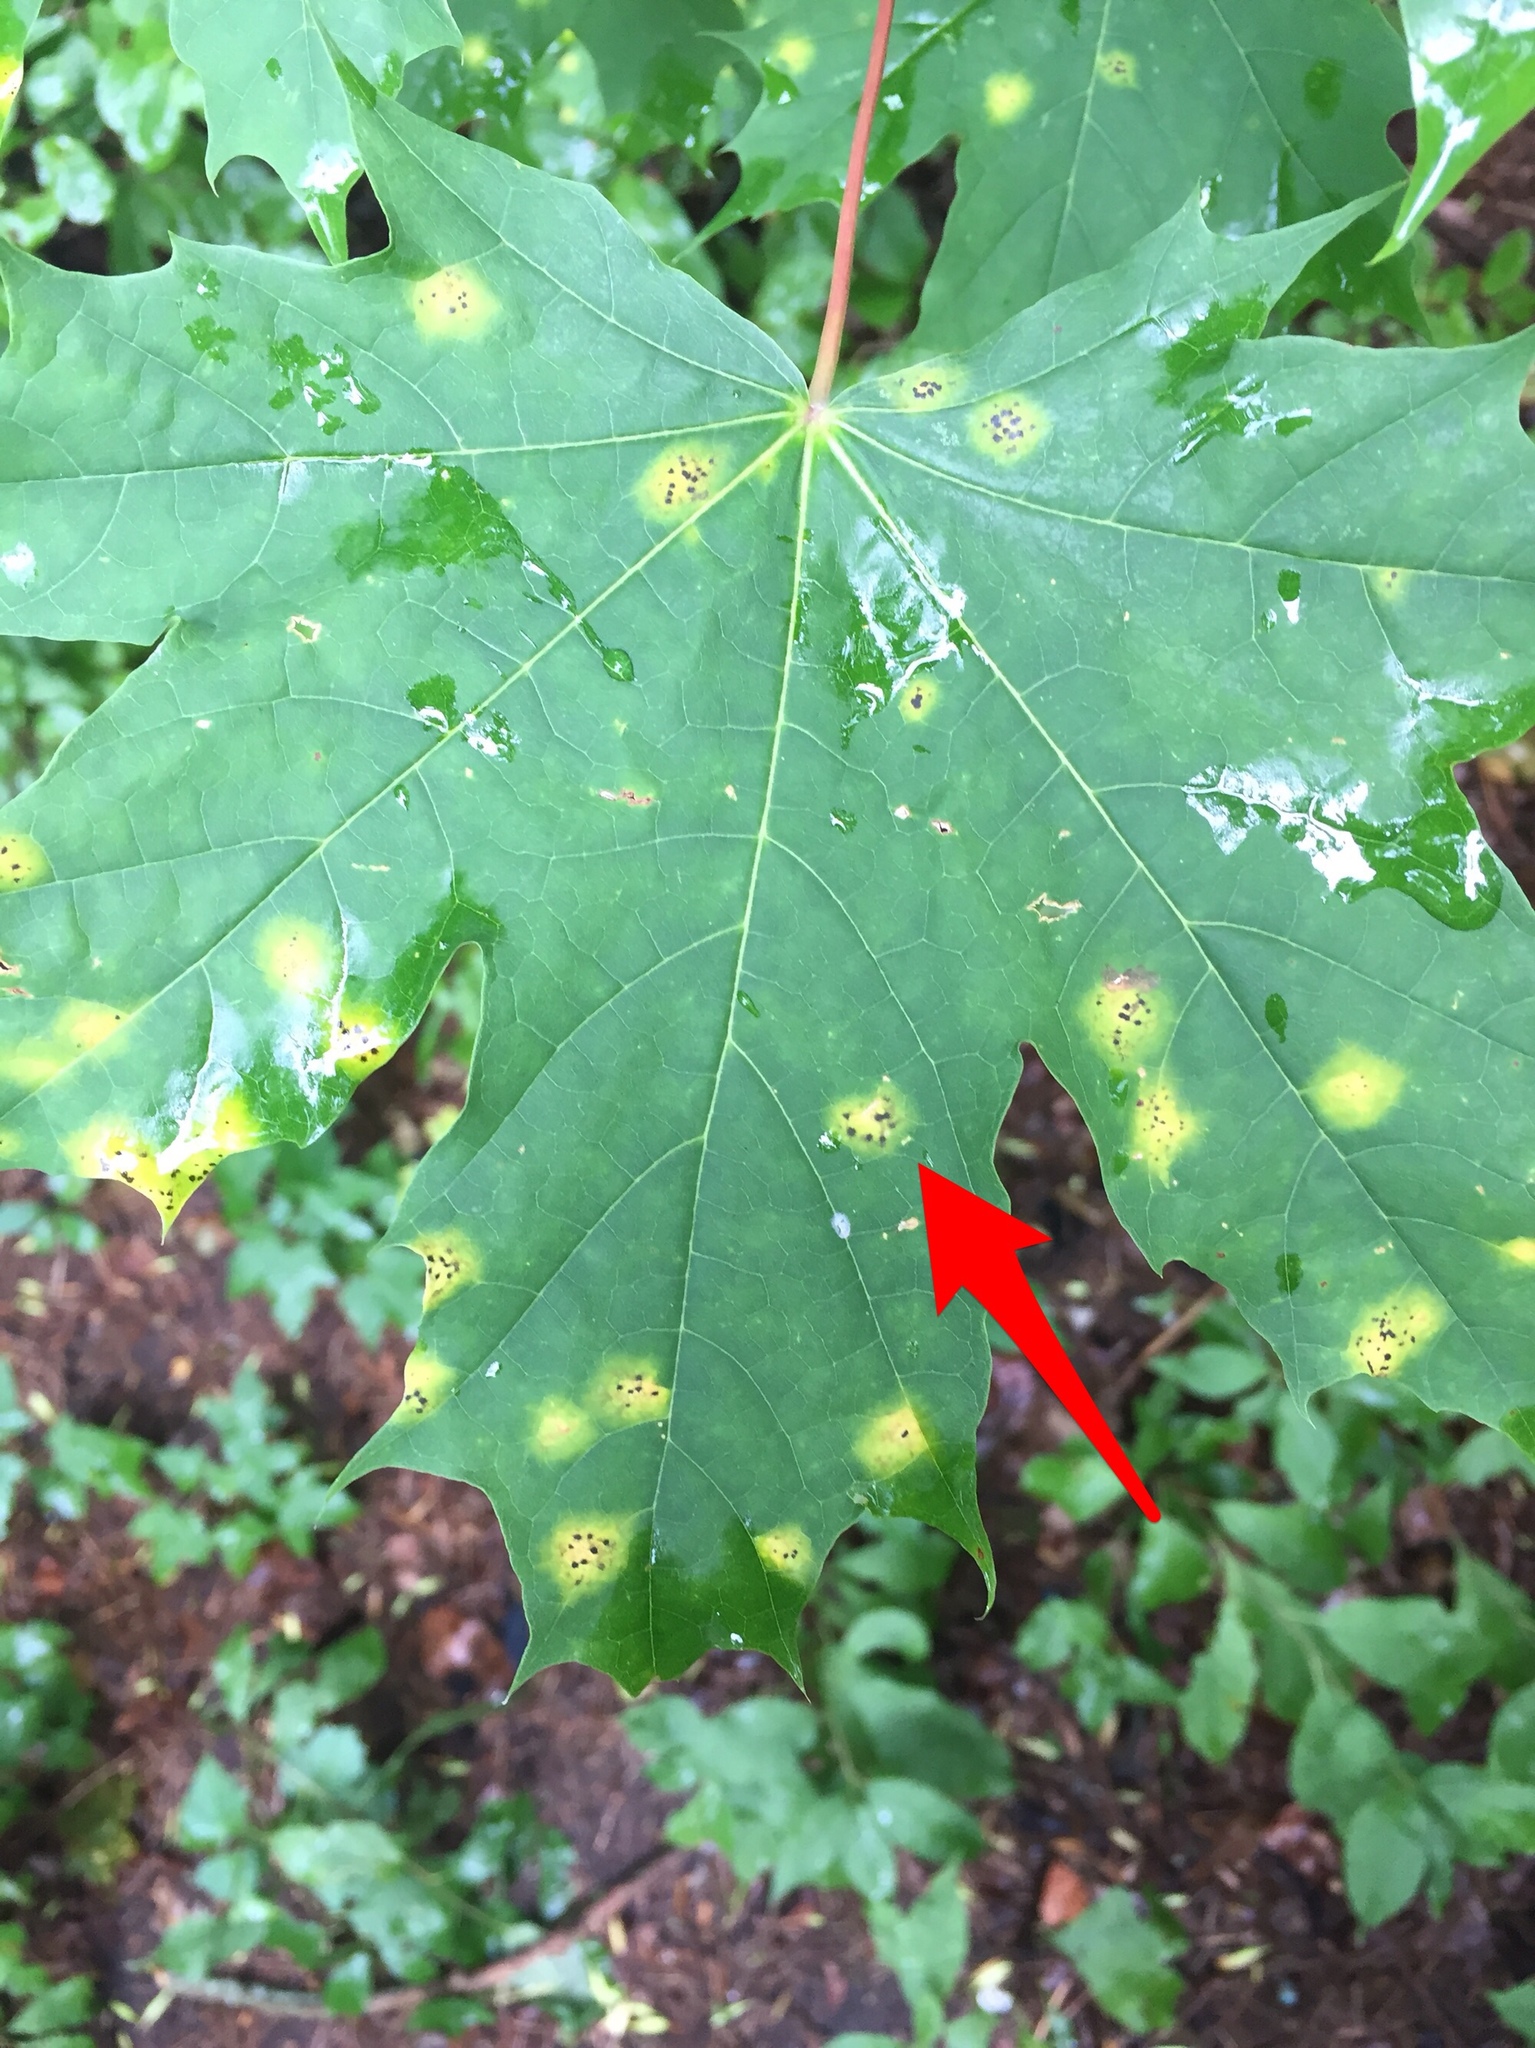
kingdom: Fungi
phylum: Ascomycota
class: Leotiomycetes
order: Rhytismatales
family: Rhytismataceae
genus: Rhytisma
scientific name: Rhytisma acerinum
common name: European tar spot
